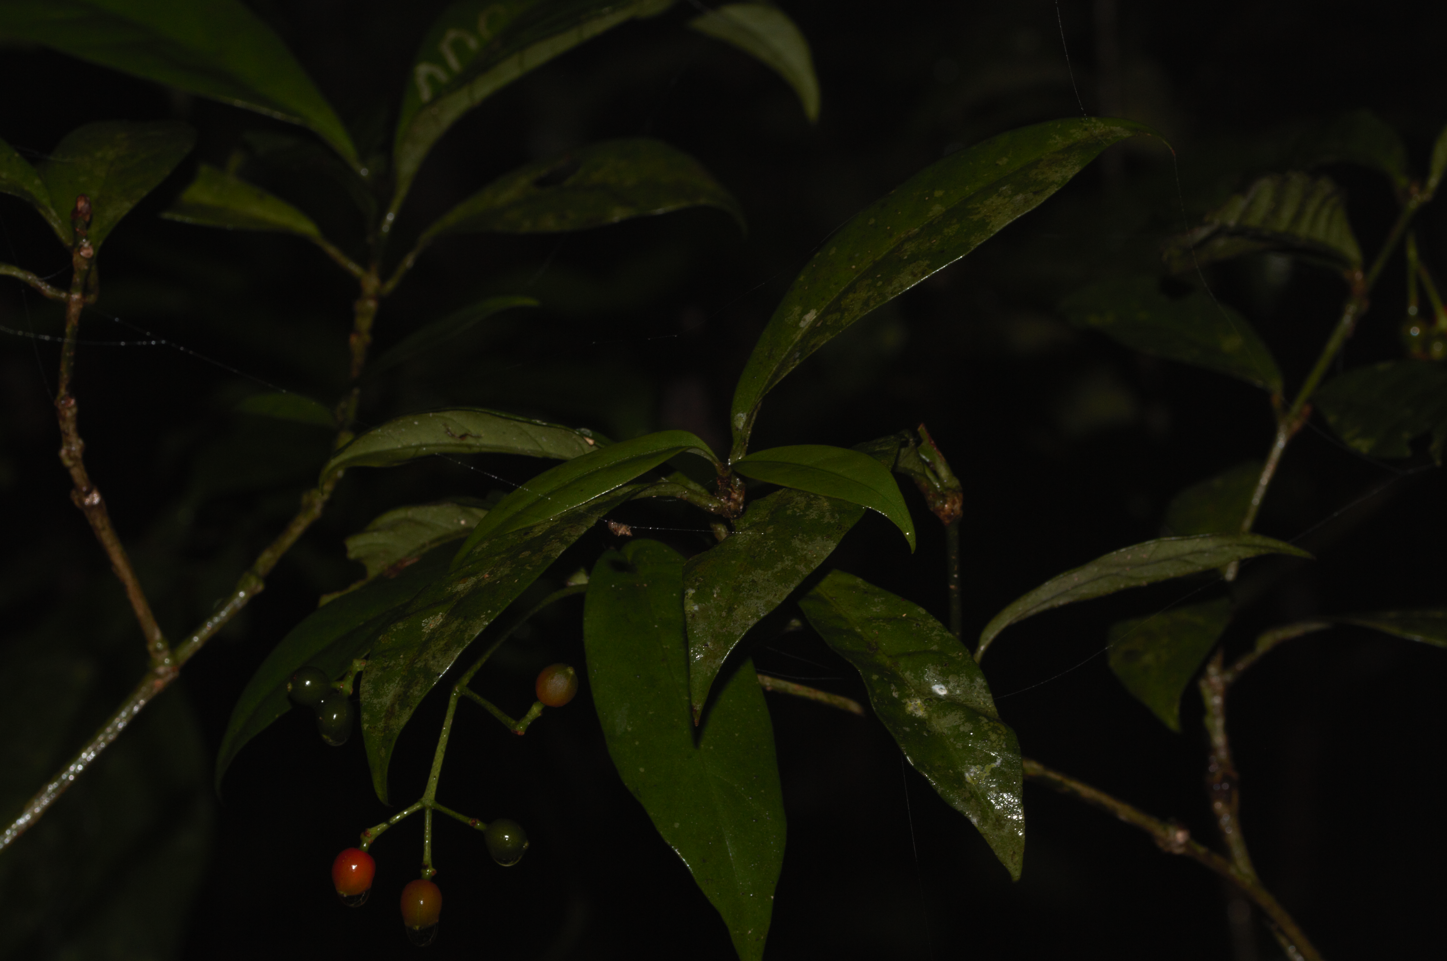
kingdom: Plantae
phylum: Tracheophyta
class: Magnoliopsida
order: Gentianales
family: Rubiaceae
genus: Psychotria
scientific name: Psychotria perferruginea
